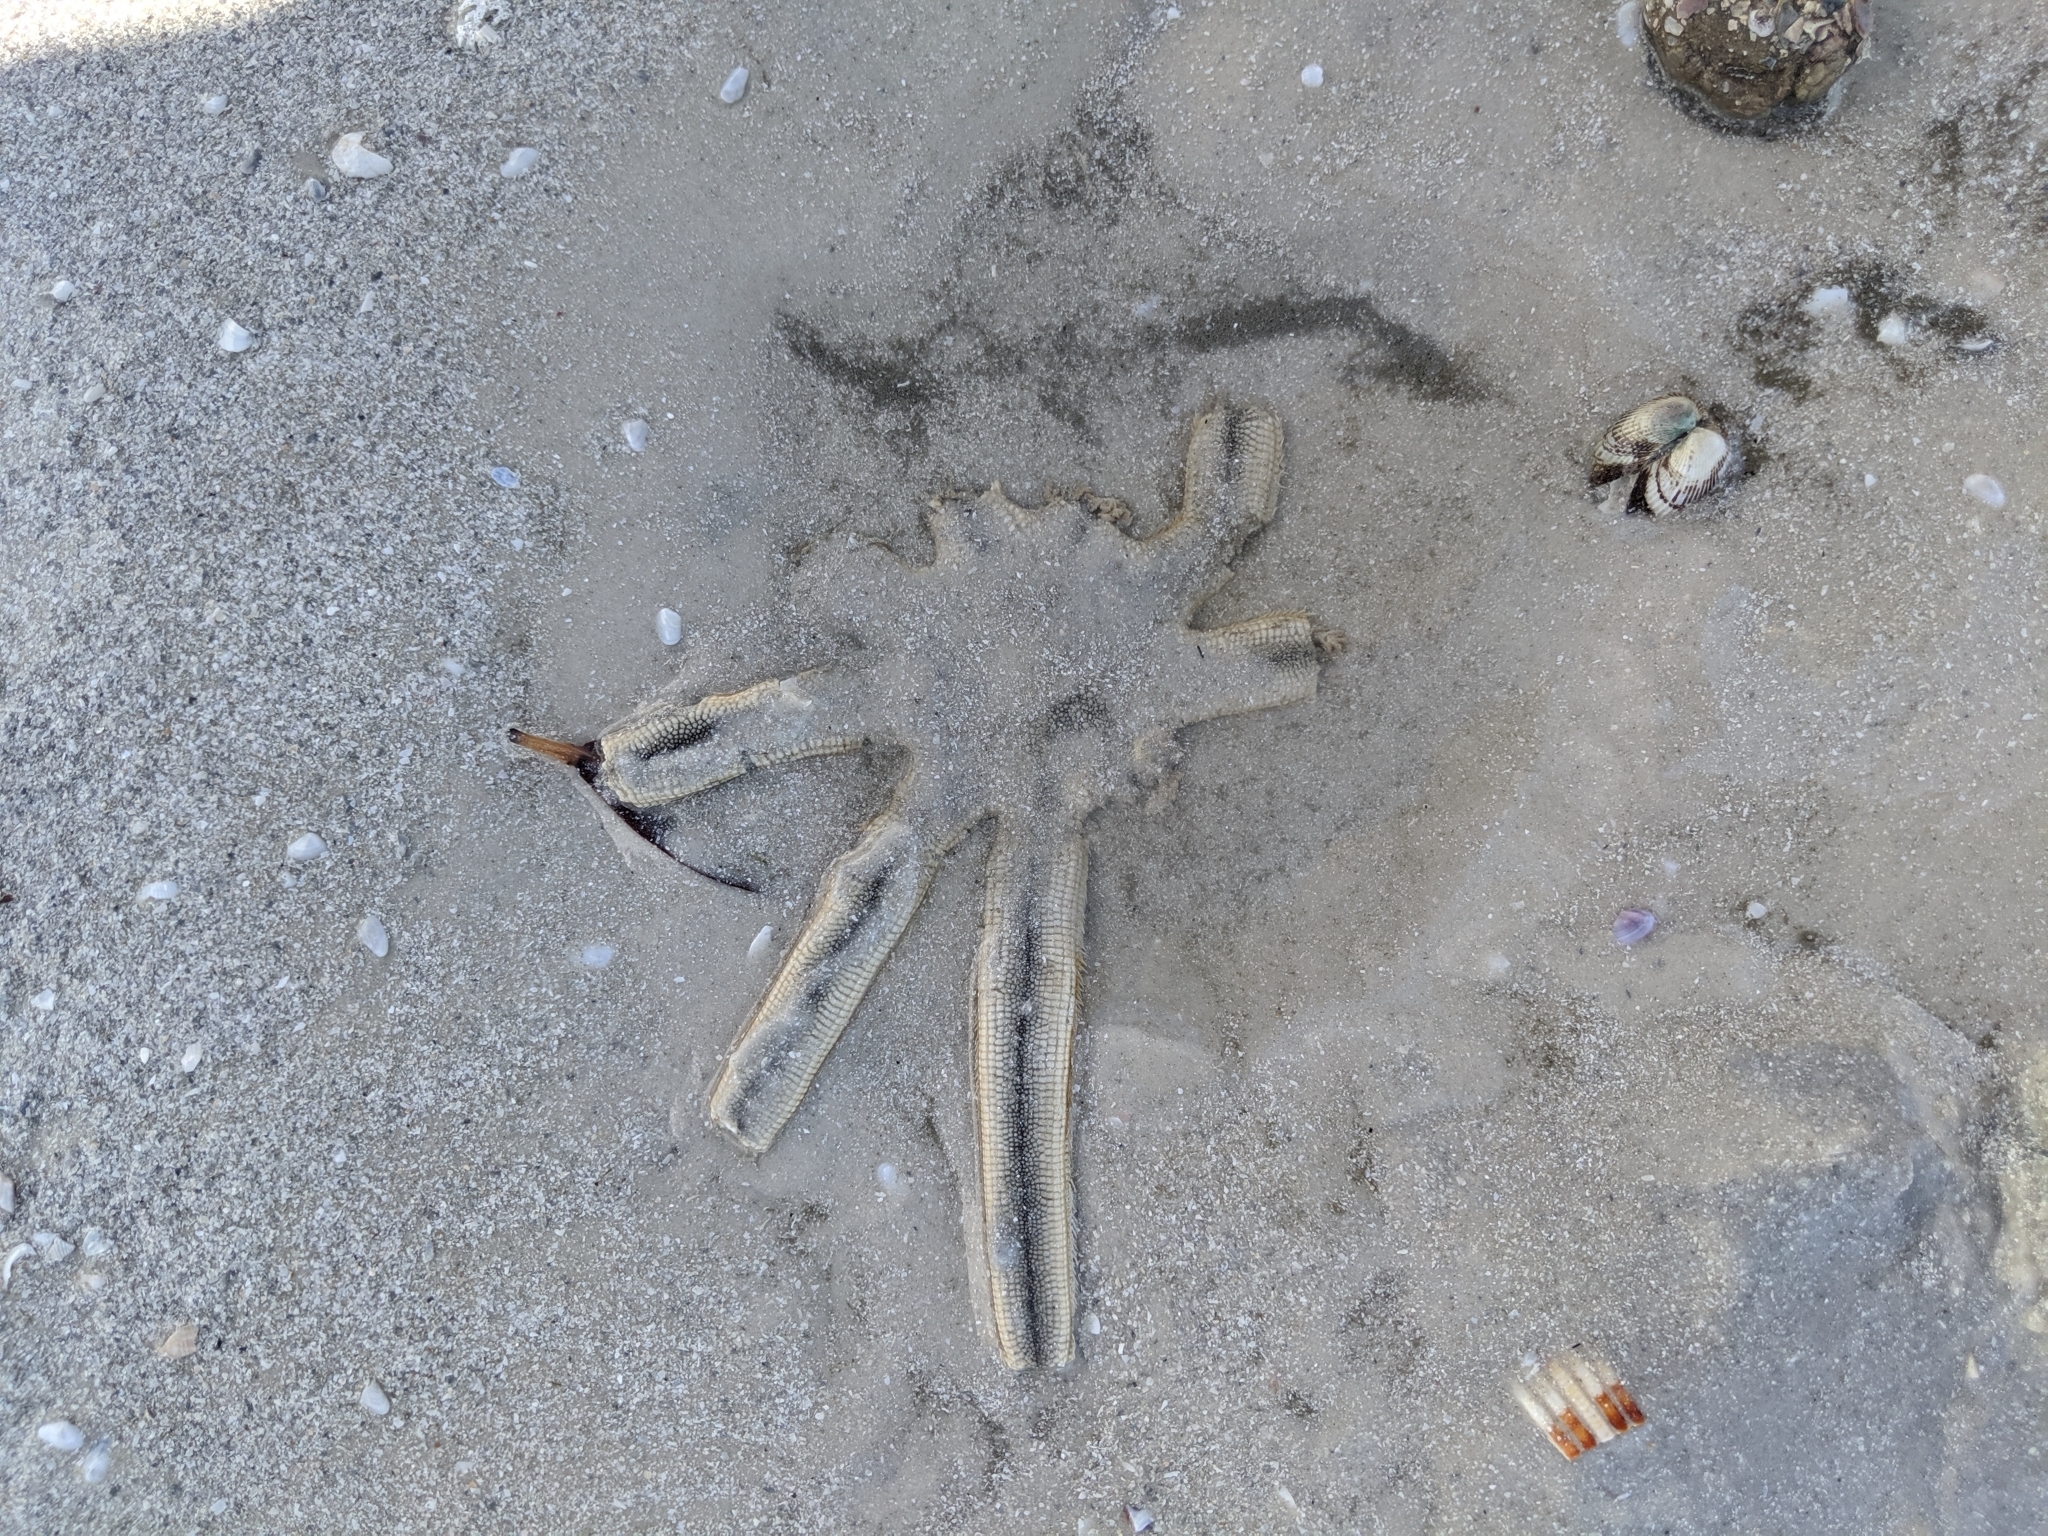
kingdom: Animalia
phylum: Echinodermata
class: Asteroidea
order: Paxillosida
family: Luidiidae
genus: Luidia
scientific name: Luidia senegalensis
